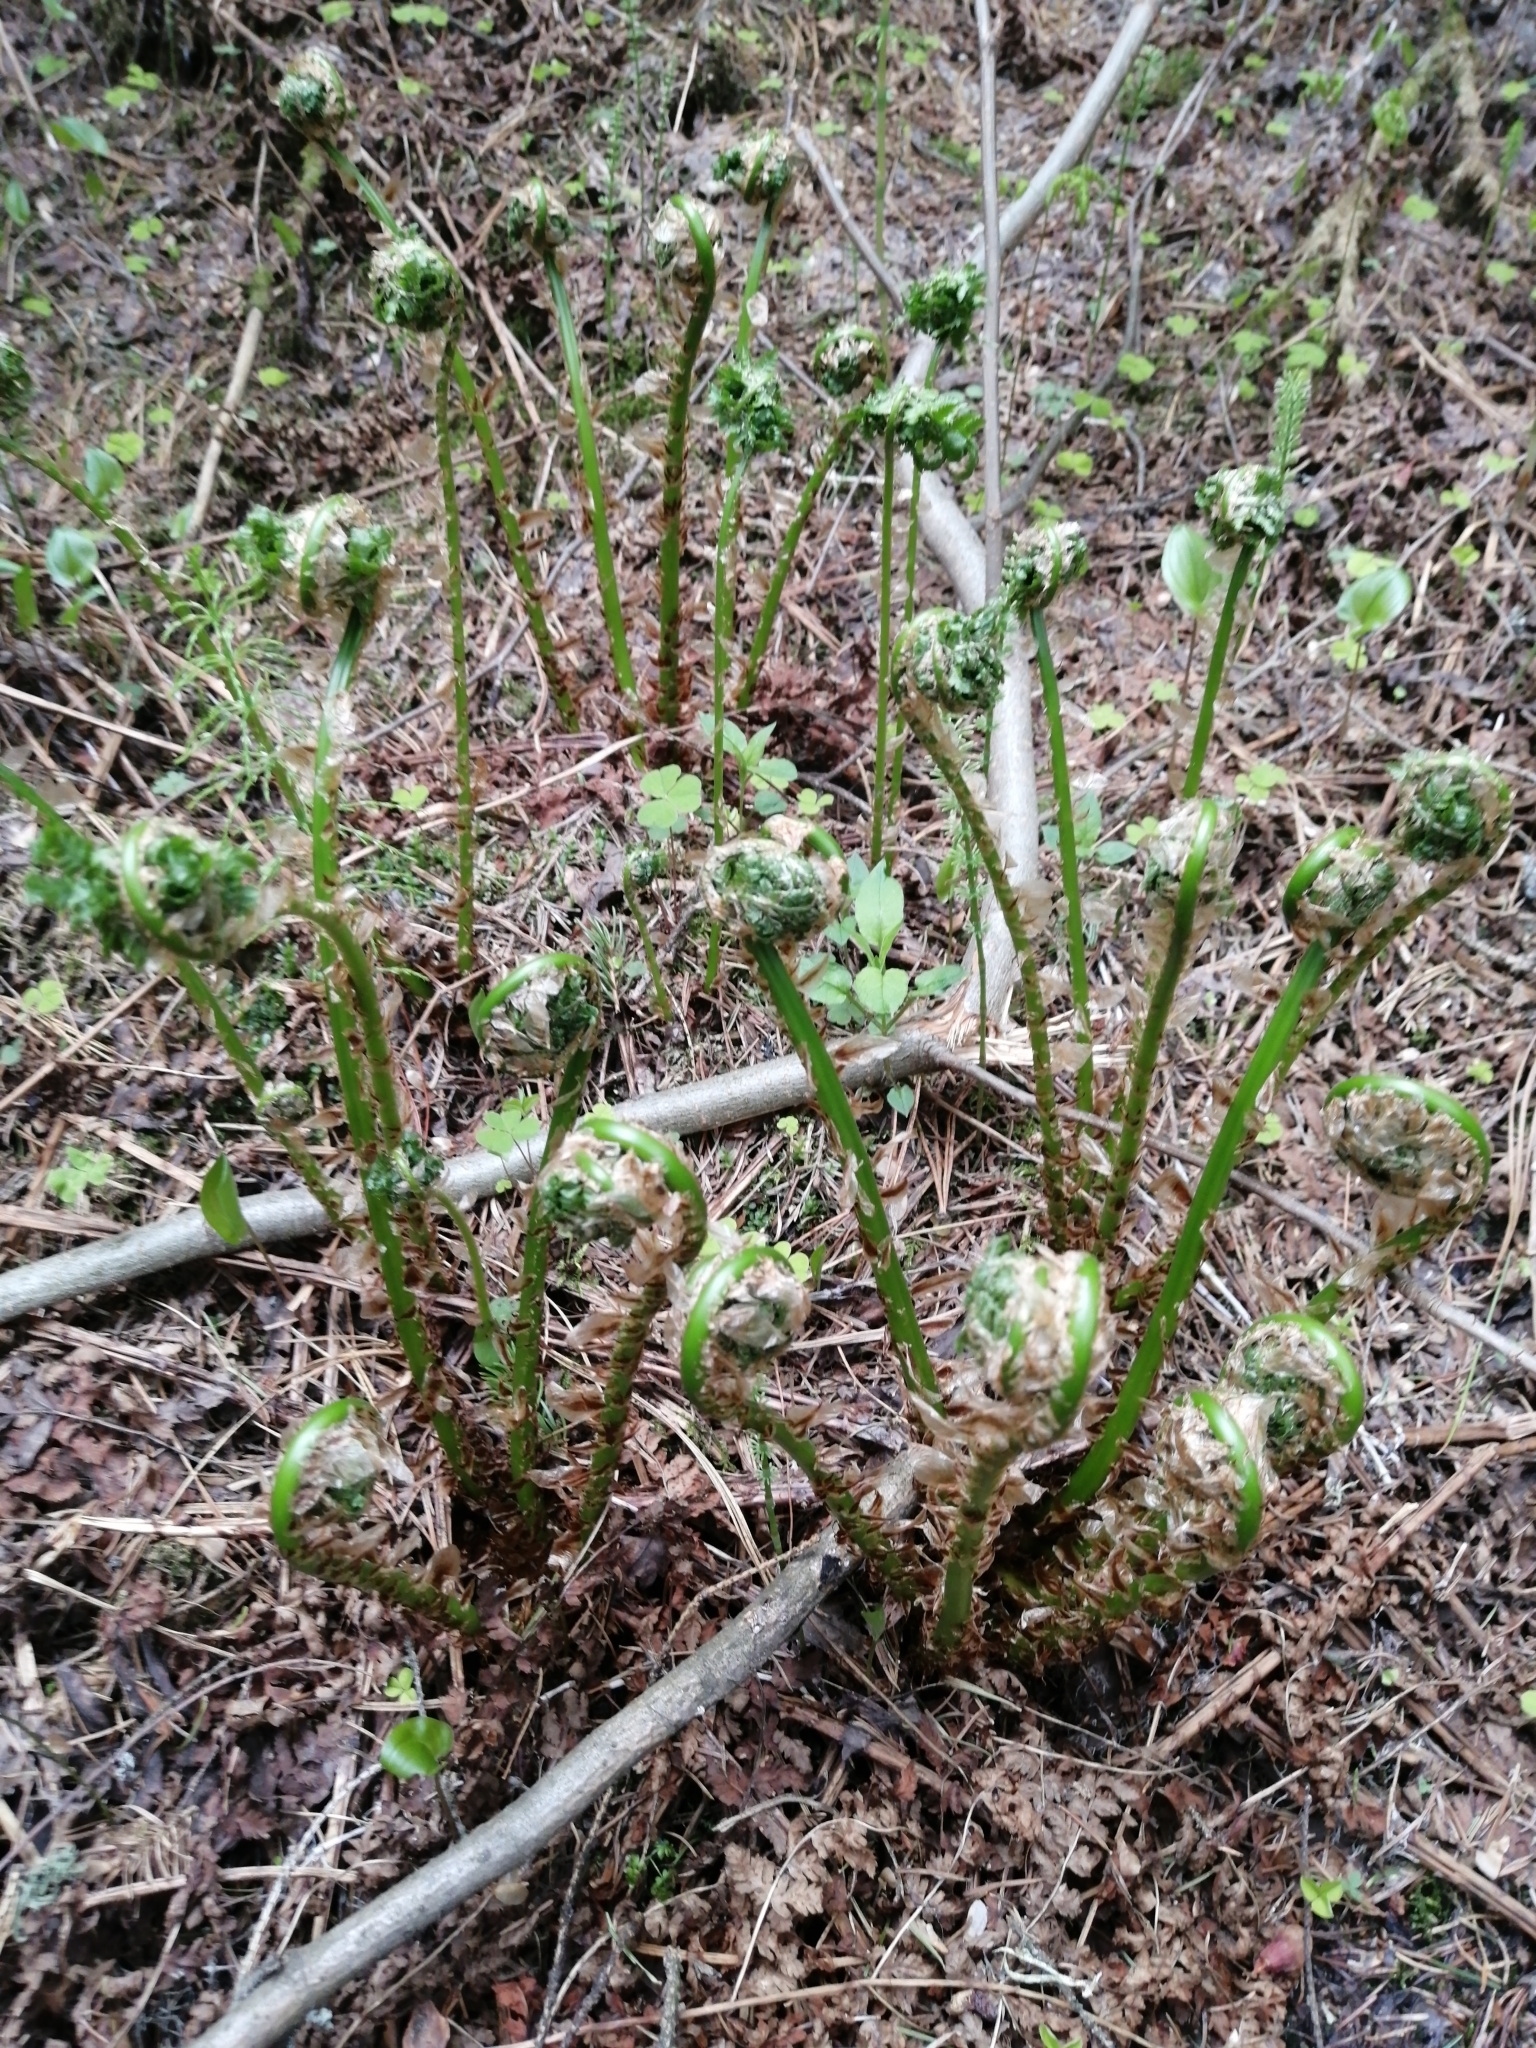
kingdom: Plantae
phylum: Tracheophyta
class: Polypodiopsida
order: Polypodiales
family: Athyriaceae
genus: Athyrium
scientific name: Athyrium filix-femina
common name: Lady fern
